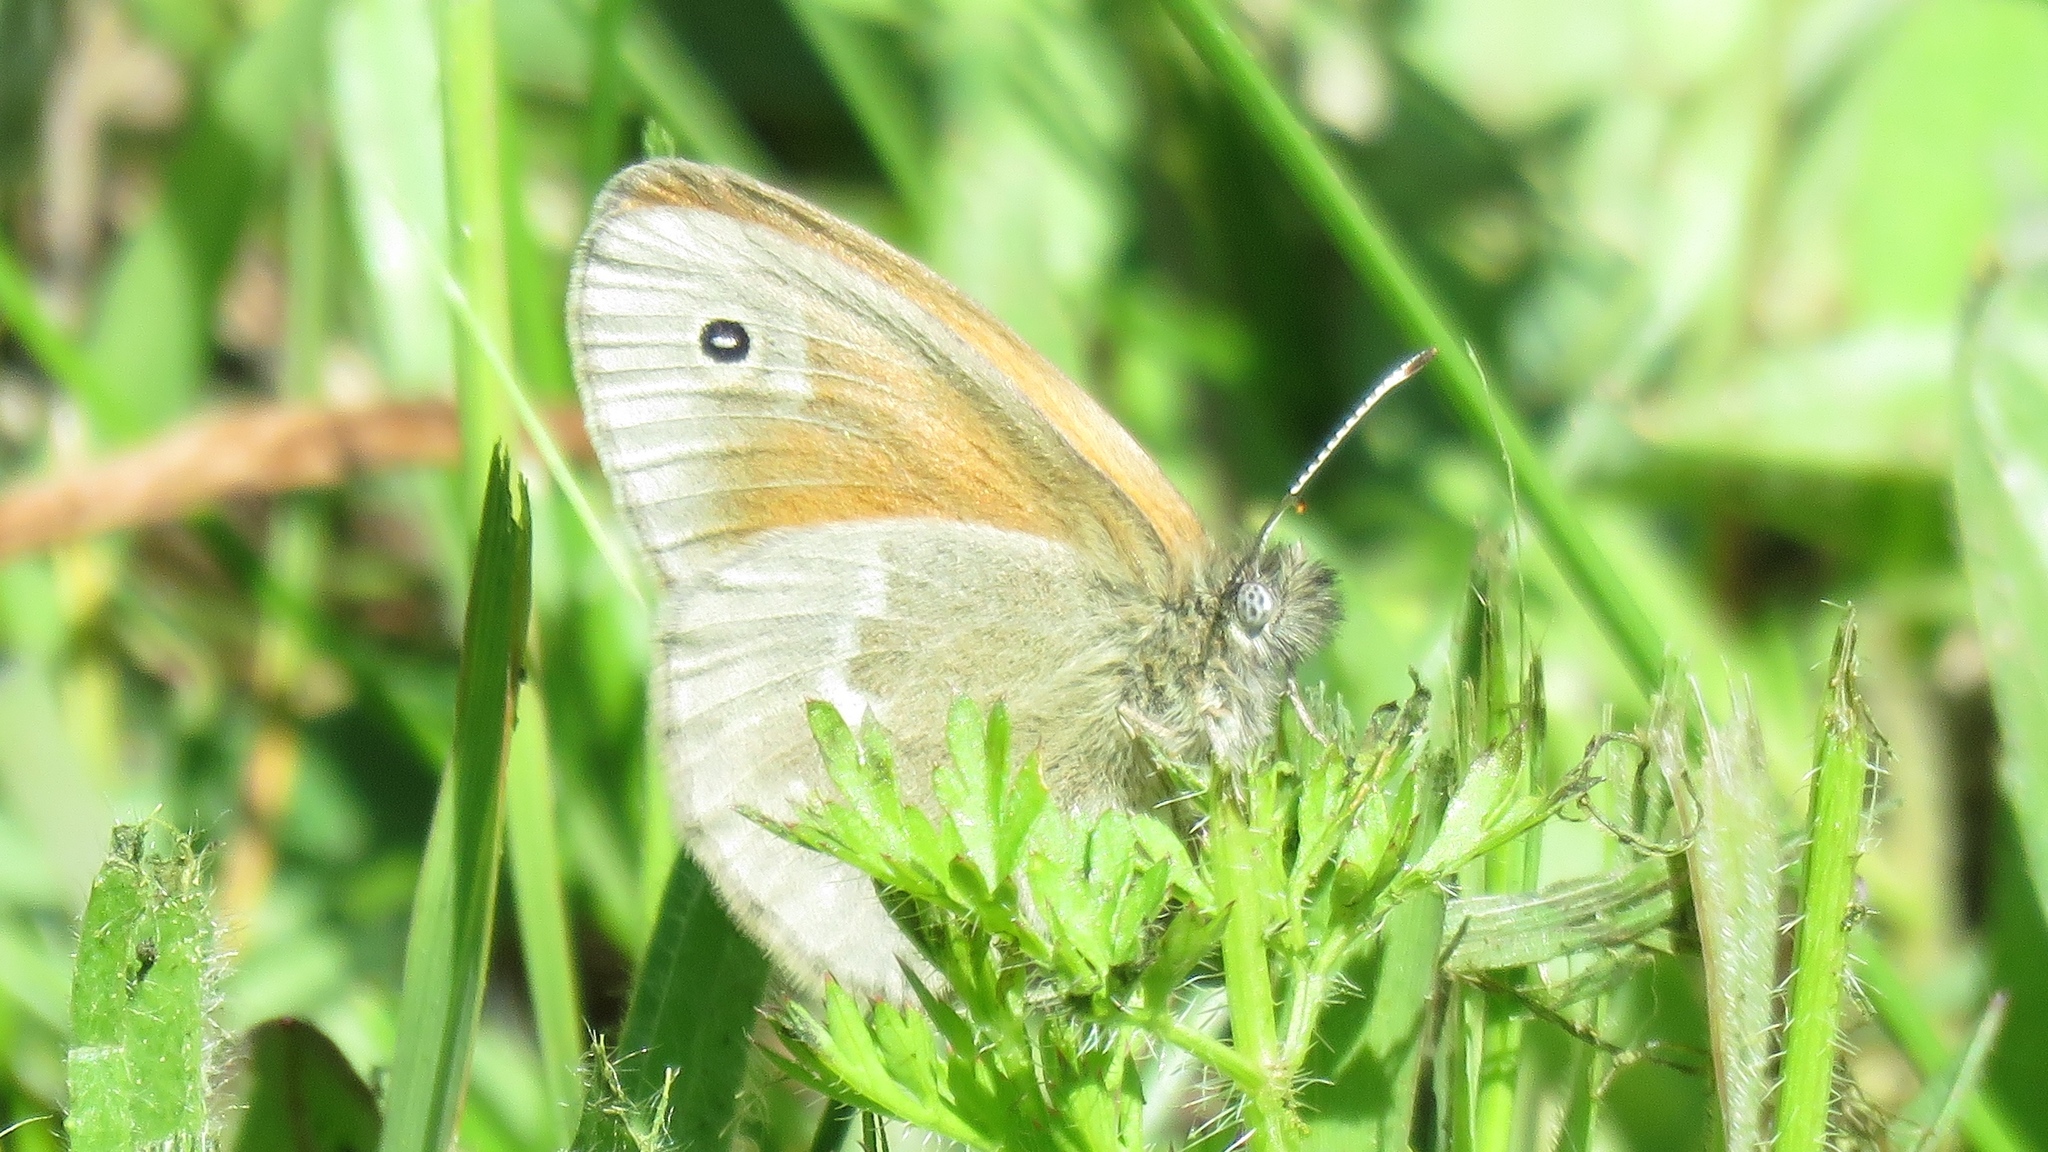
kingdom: Animalia
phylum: Arthropoda
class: Insecta
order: Lepidoptera
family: Nymphalidae
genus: Coenonympha
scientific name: Coenonympha california
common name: Common ringlet
